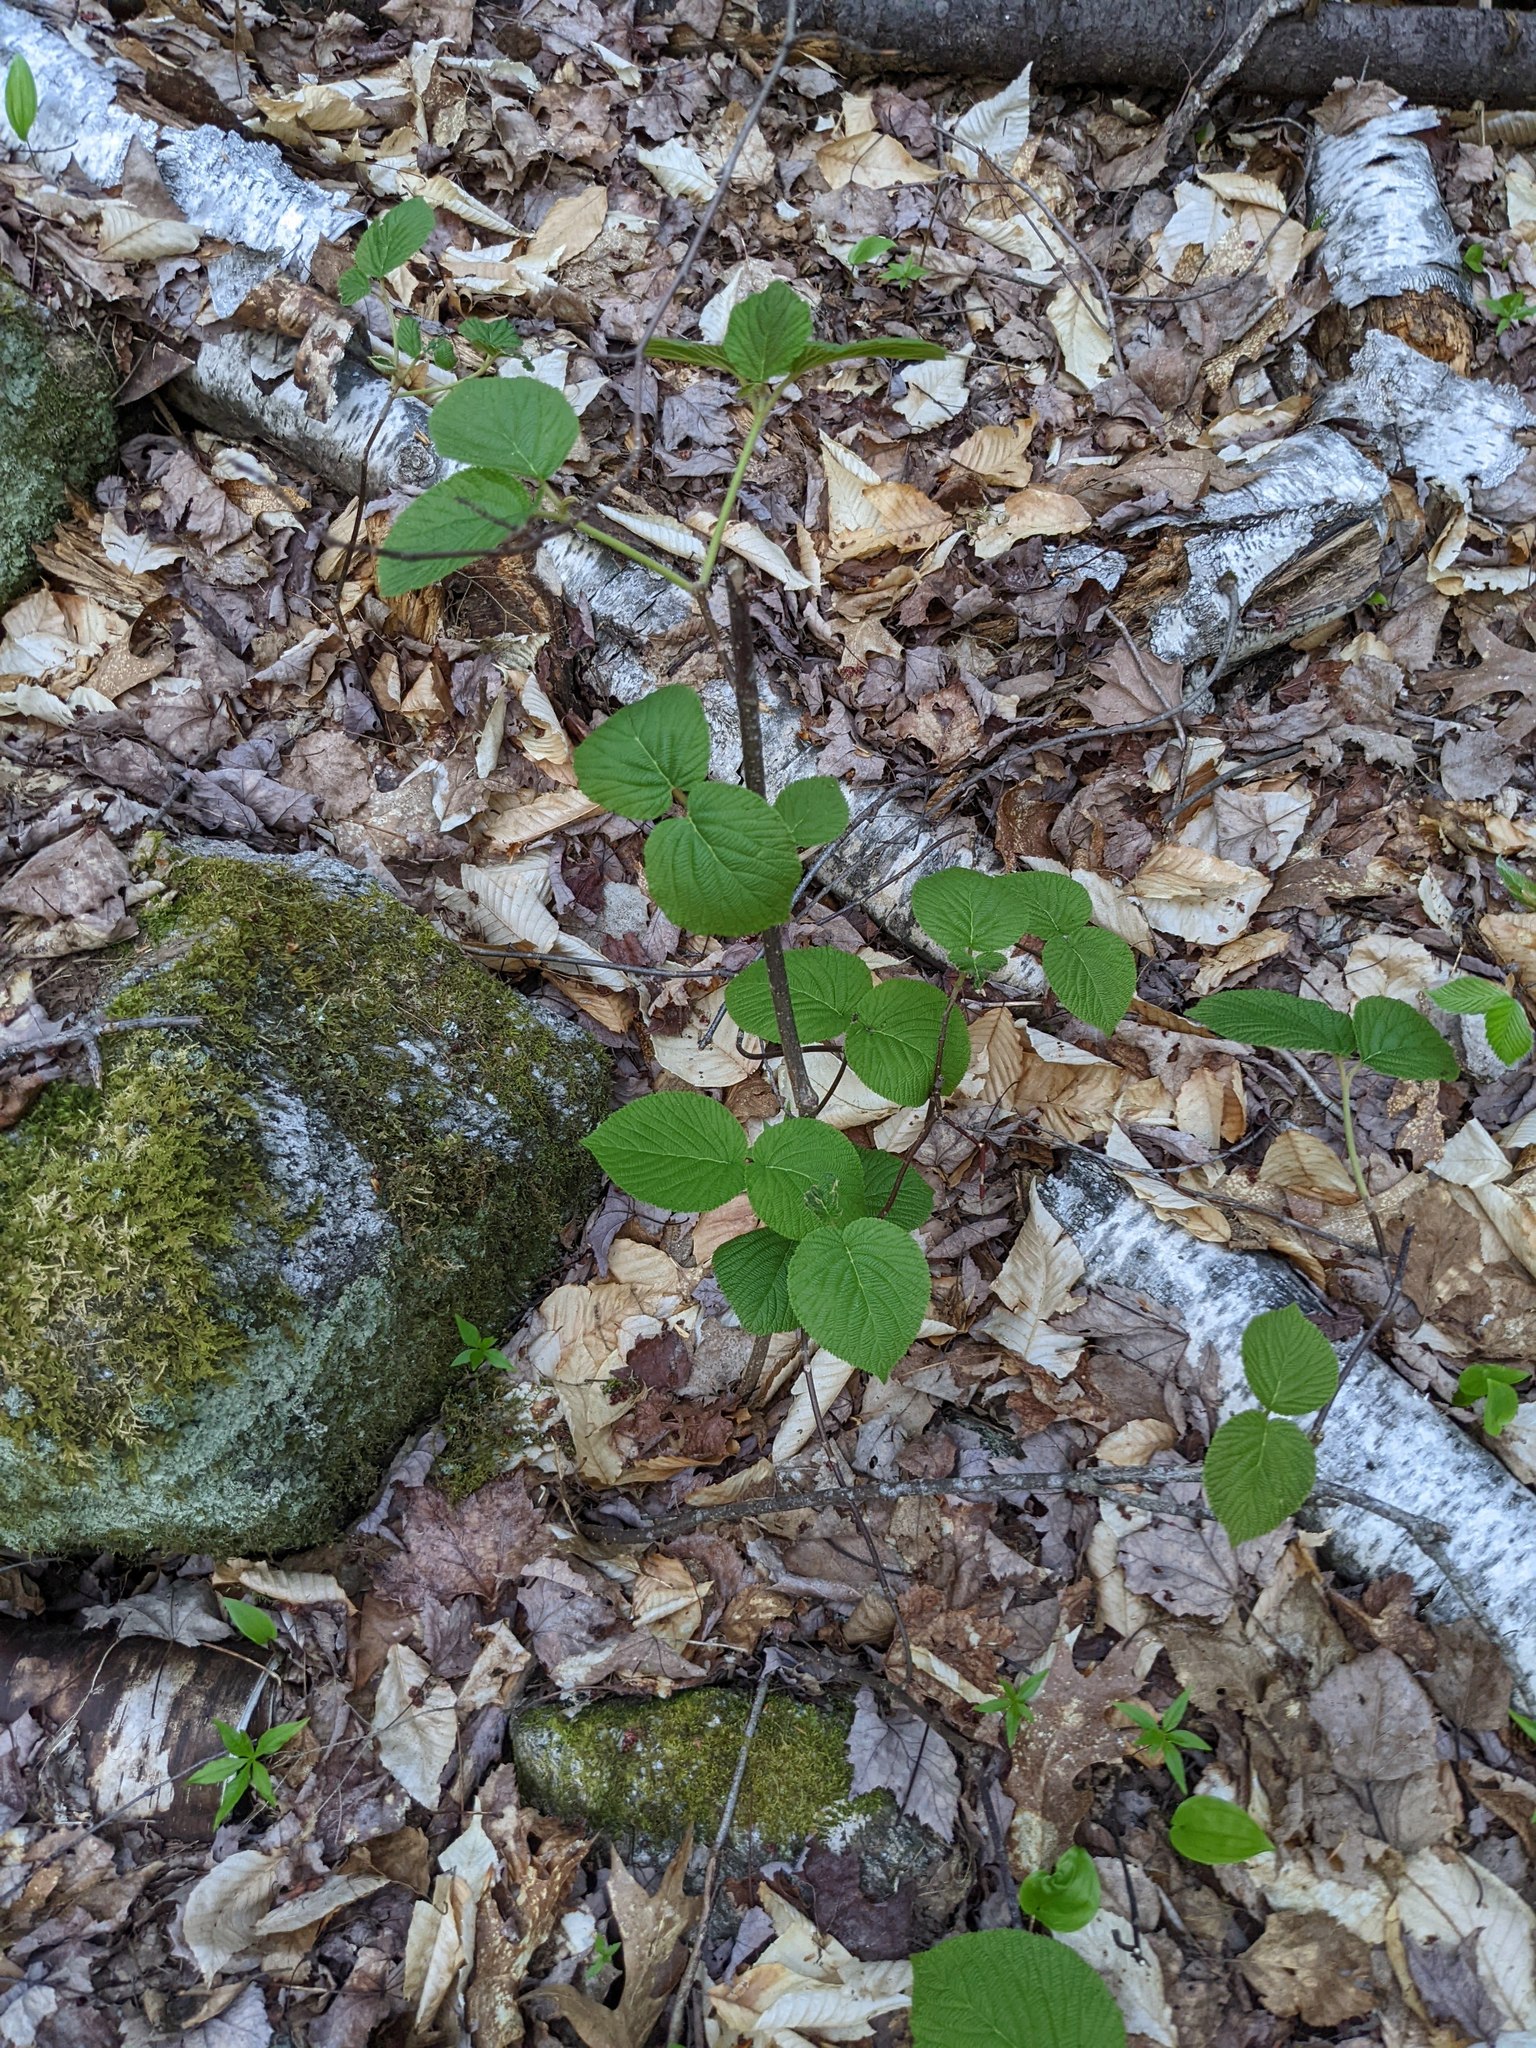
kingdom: Plantae
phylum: Tracheophyta
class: Magnoliopsida
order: Dipsacales
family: Viburnaceae
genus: Viburnum
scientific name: Viburnum lantanoides
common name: Hobblebush
